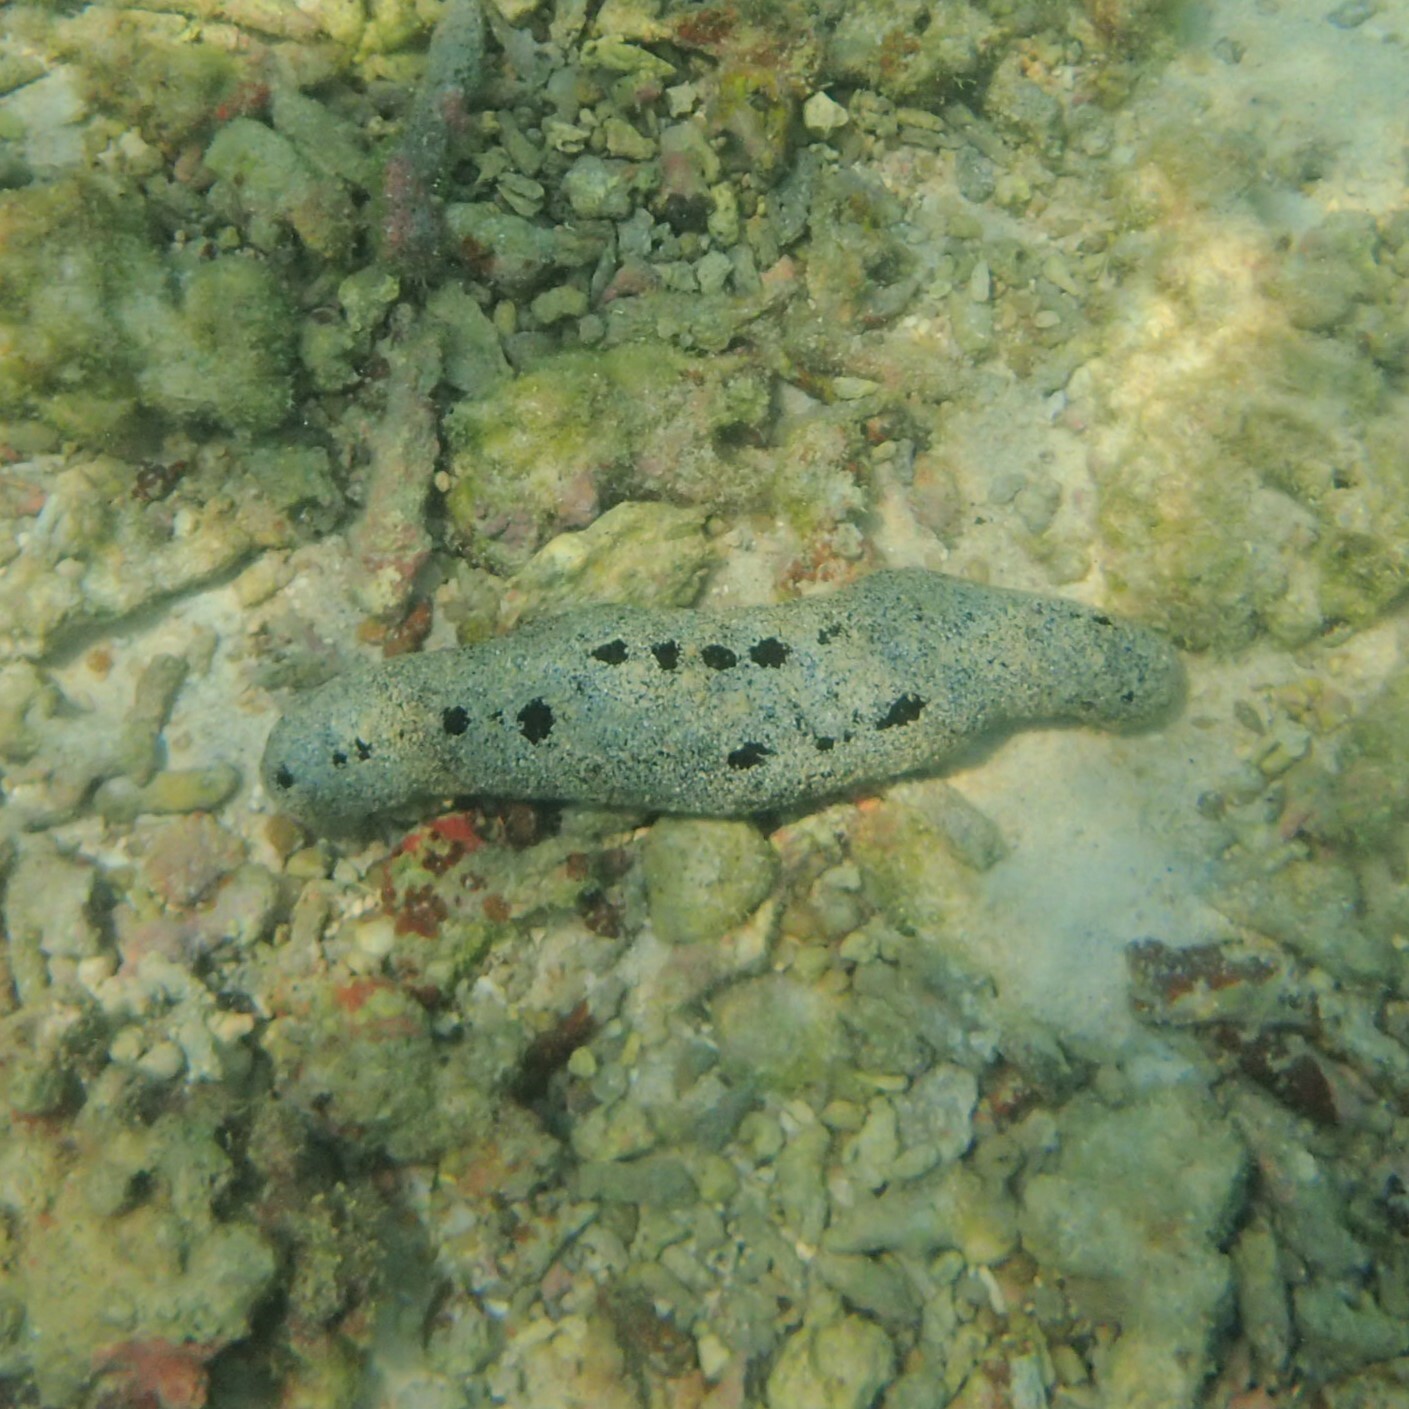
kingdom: Animalia
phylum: Echinodermata
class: Holothuroidea
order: Holothuriida
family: Holothuriidae
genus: Holothuria
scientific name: Holothuria atra
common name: Lollyfish
